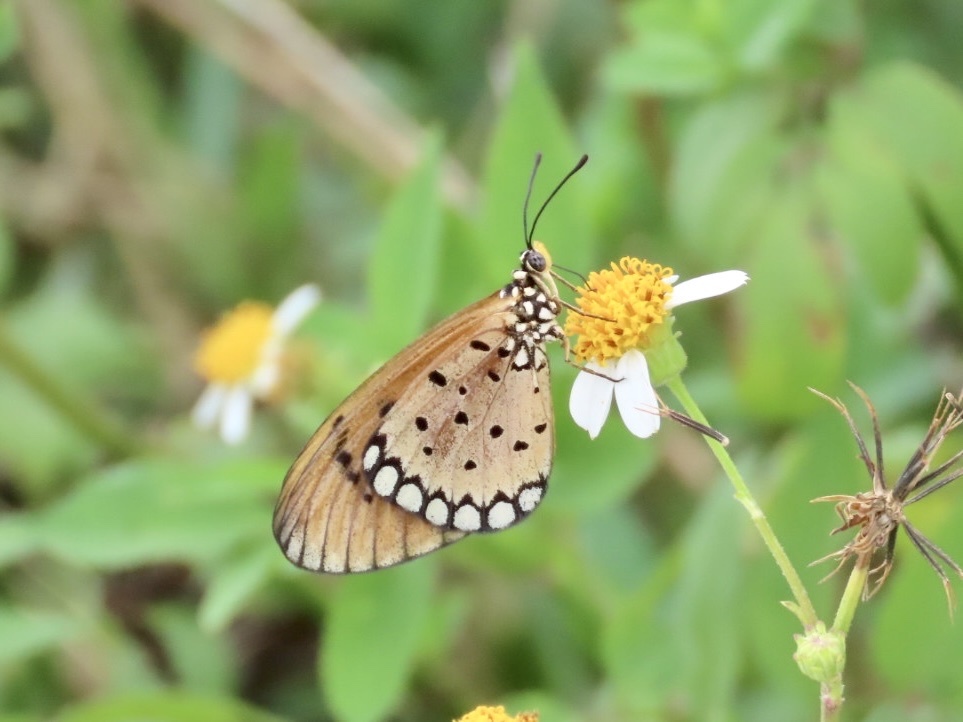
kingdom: Animalia
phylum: Arthropoda
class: Insecta
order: Lepidoptera
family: Nymphalidae
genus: Acraea
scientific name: Acraea terpsicore
